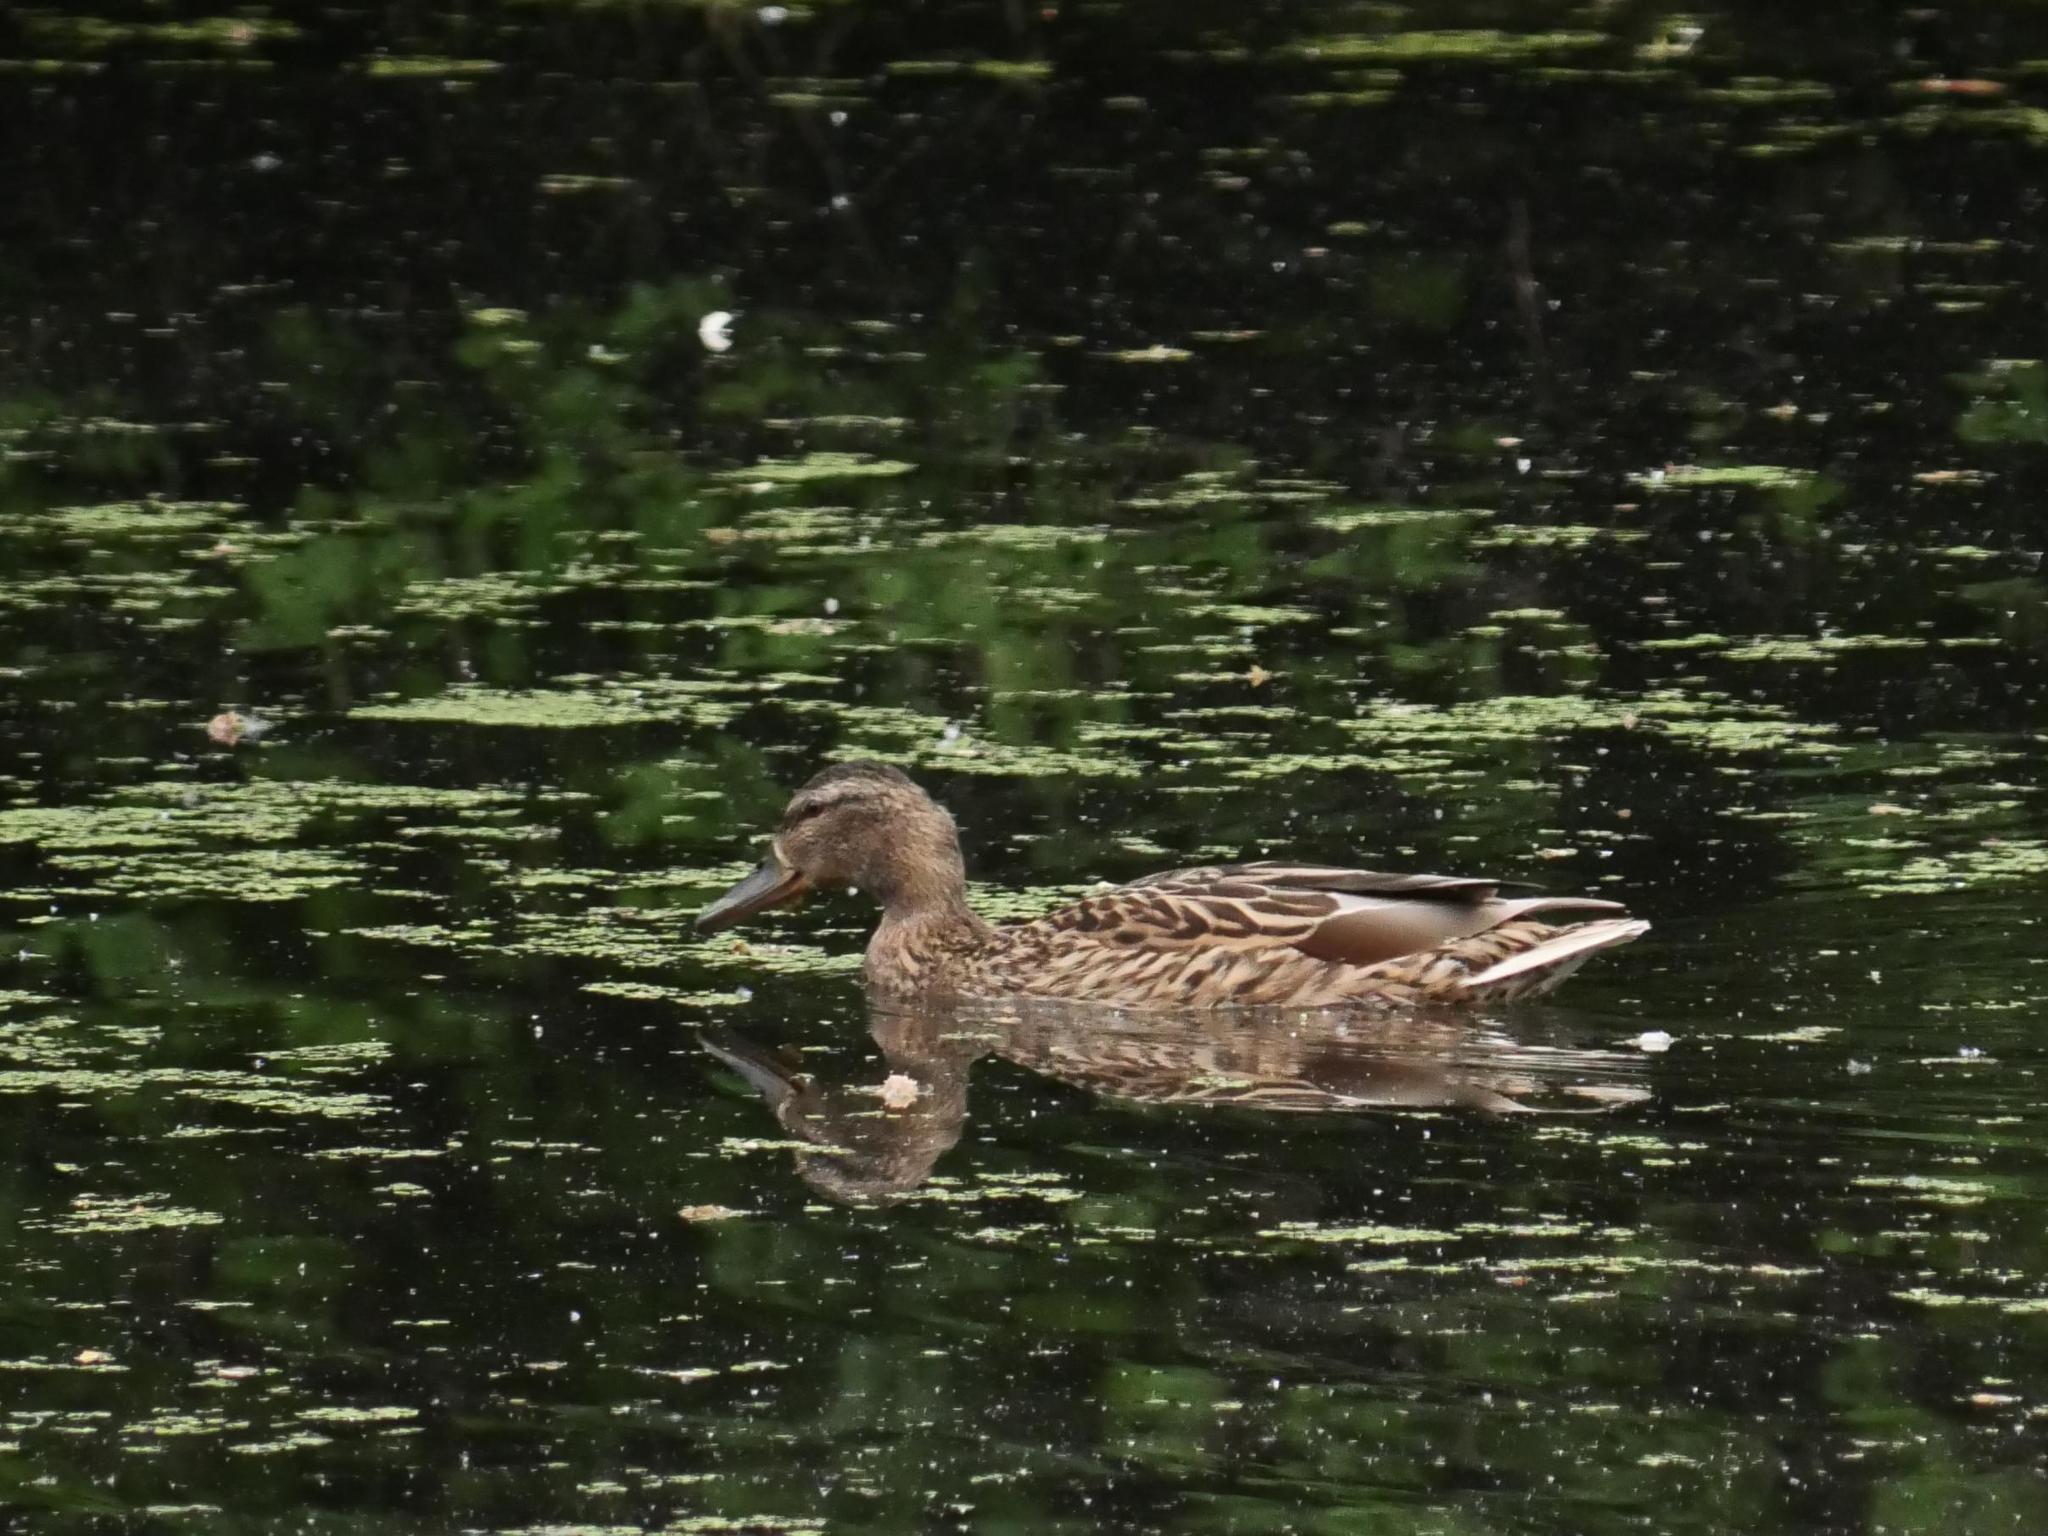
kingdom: Animalia
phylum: Chordata
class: Aves
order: Anseriformes
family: Anatidae
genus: Anas
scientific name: Anas platyrhynchos
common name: Mallard
